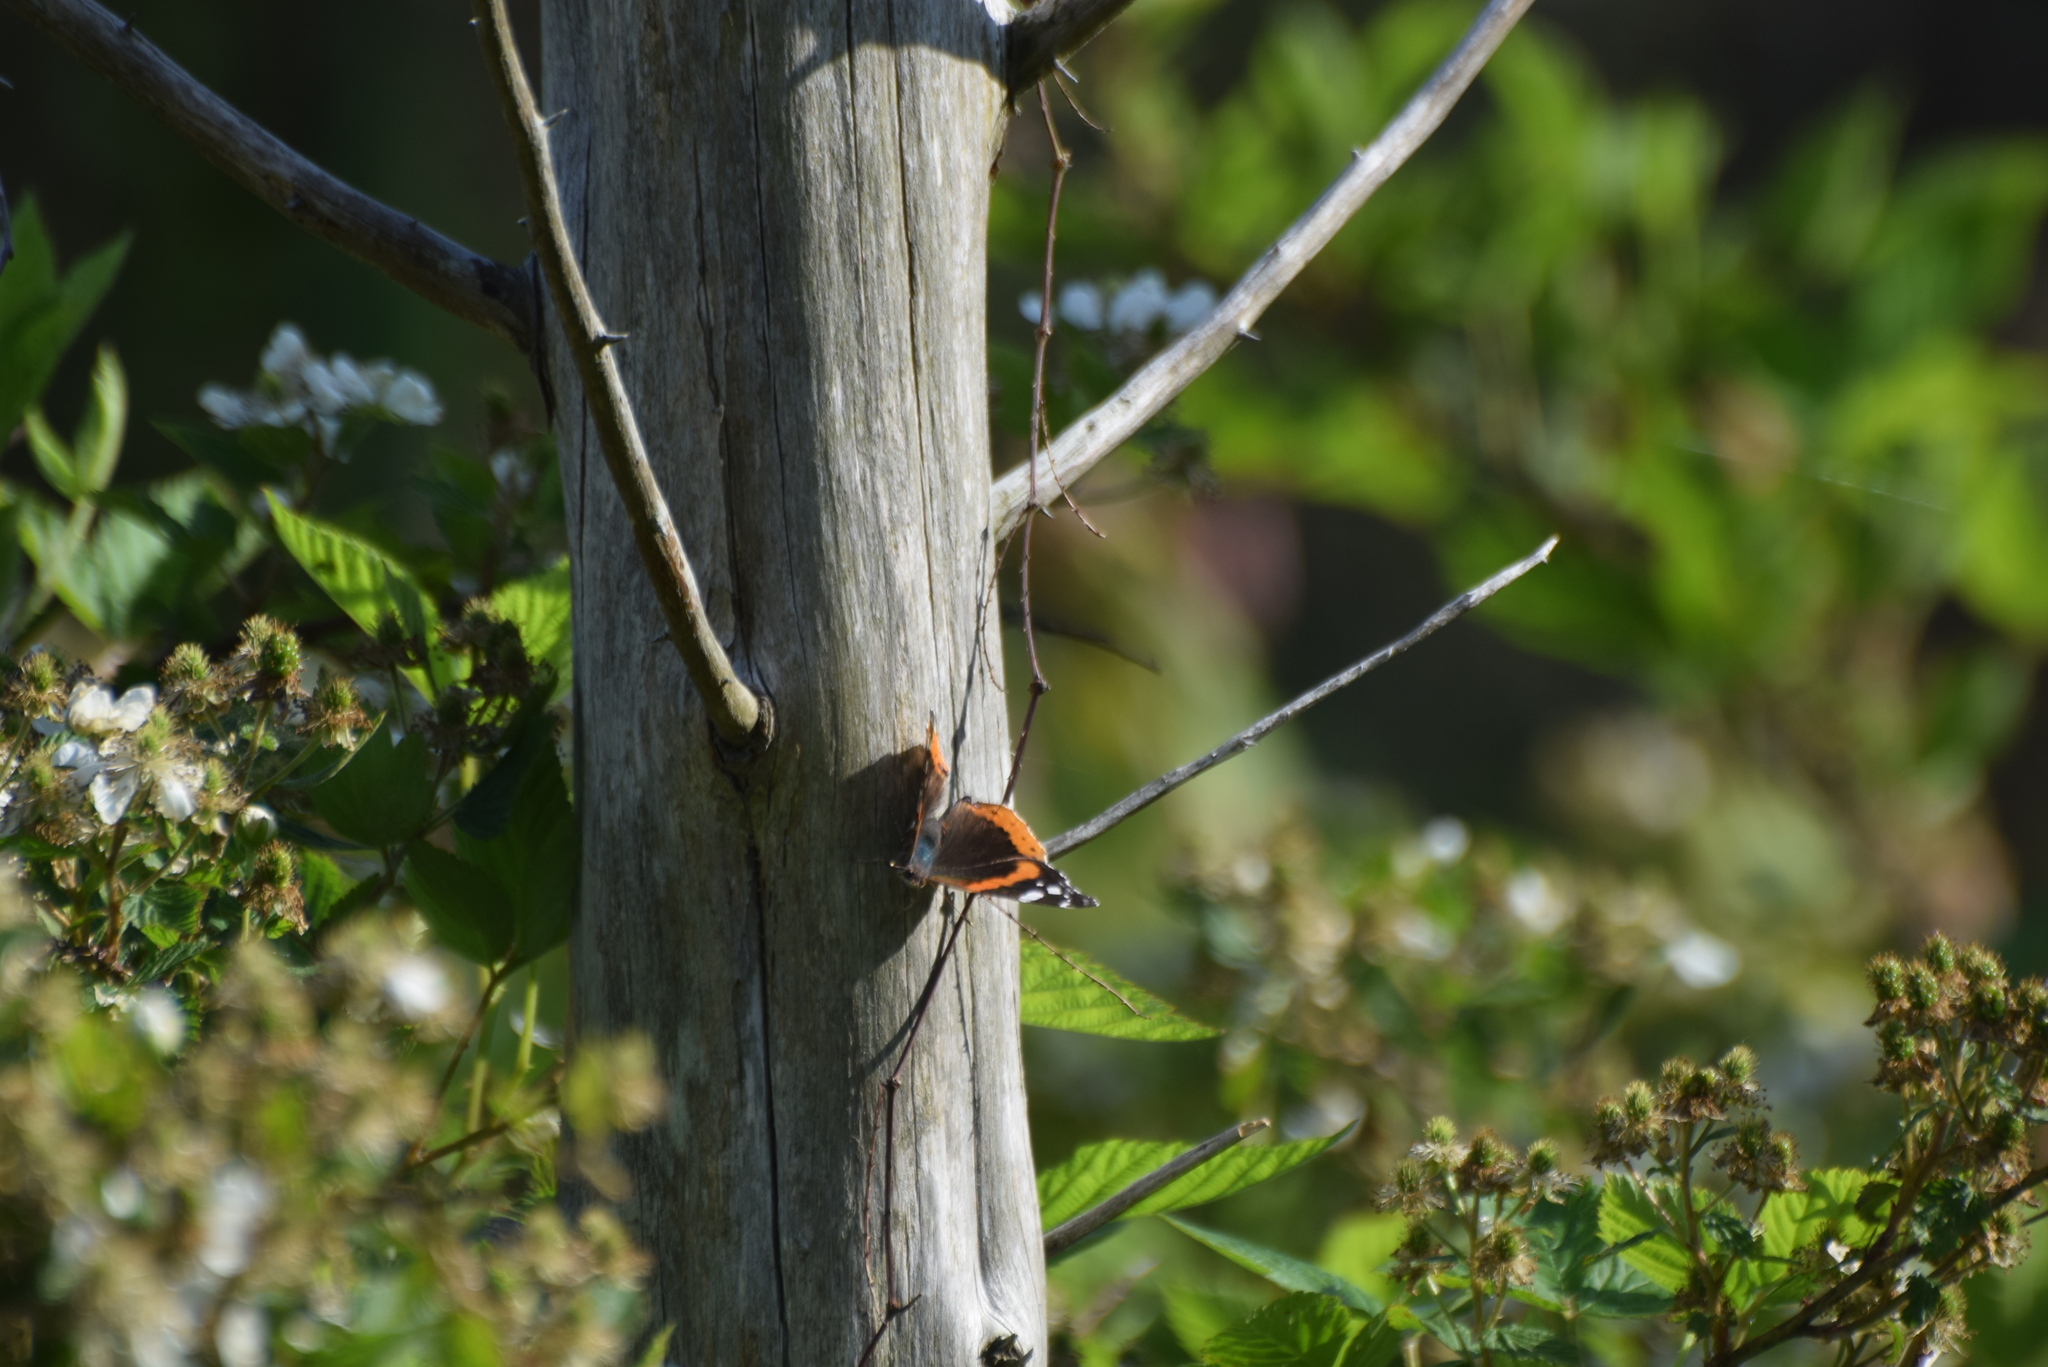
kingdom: Animalia
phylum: Arthropoda
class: Insecta
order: Lepidoptera
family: Nymphalidae
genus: Vanessa
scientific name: Vanessa atalanta
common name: Red admiral
